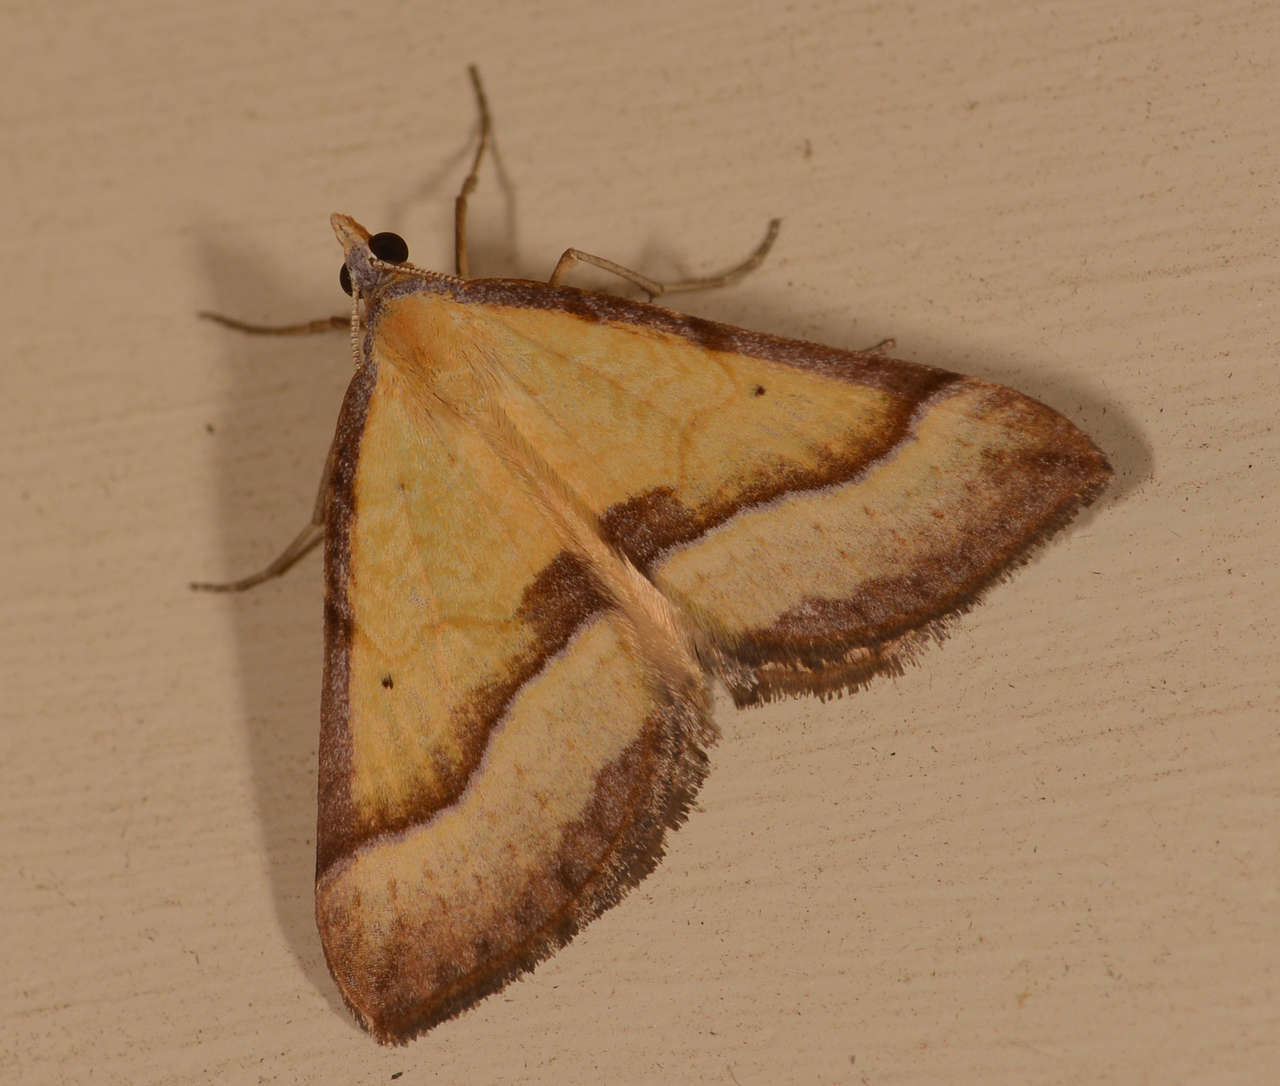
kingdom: Animalia
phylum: Arthropoda
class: Insecta
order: Lepidoptera
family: Geometridae
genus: Anachloris
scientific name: Anachloris subochraria
